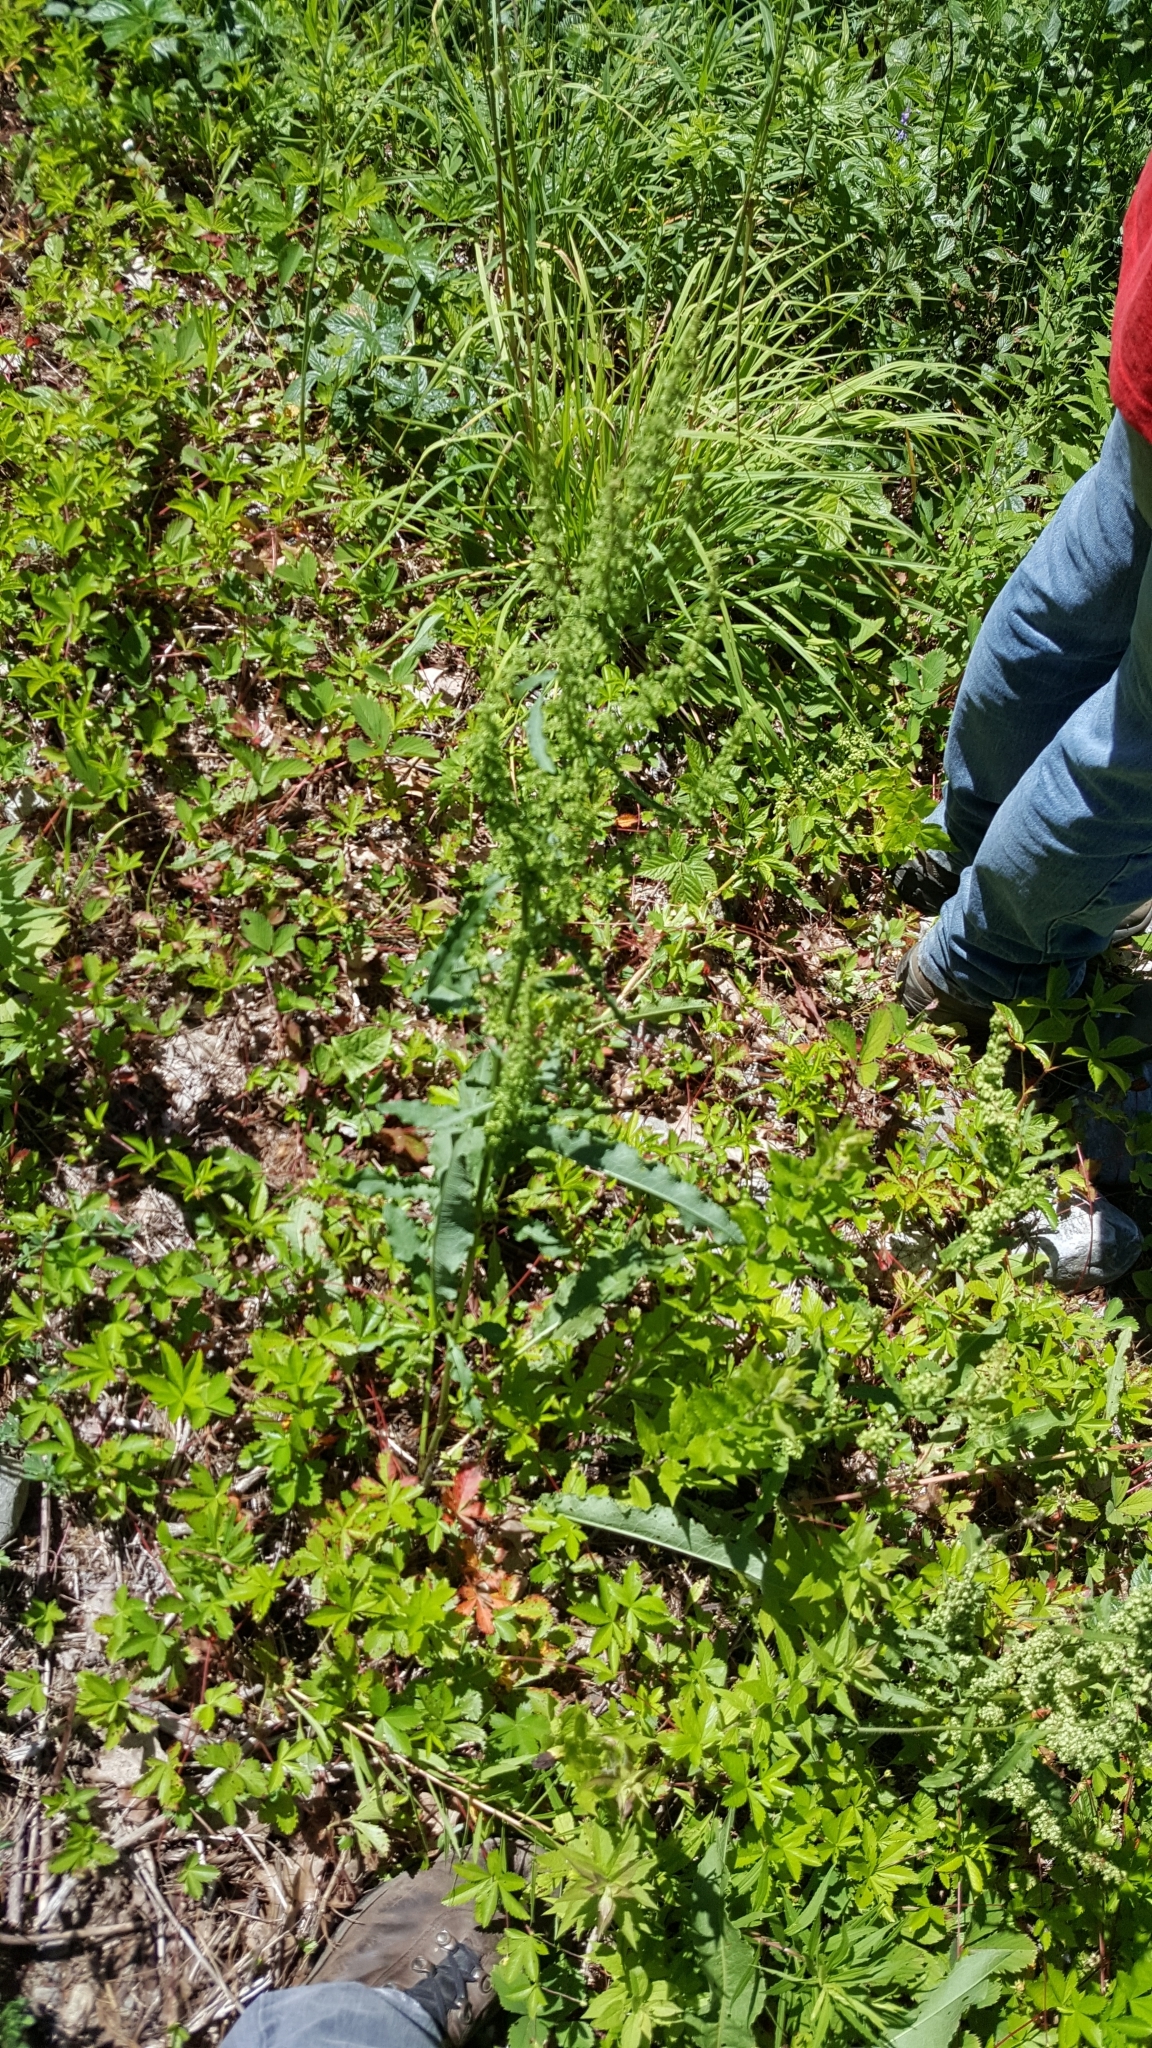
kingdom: Plantae
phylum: Tracheophyta
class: Magnoliopsida
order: Caryophyllales
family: Polygonaceae
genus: Rumex
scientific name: Rumex crispus
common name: Curled dock
